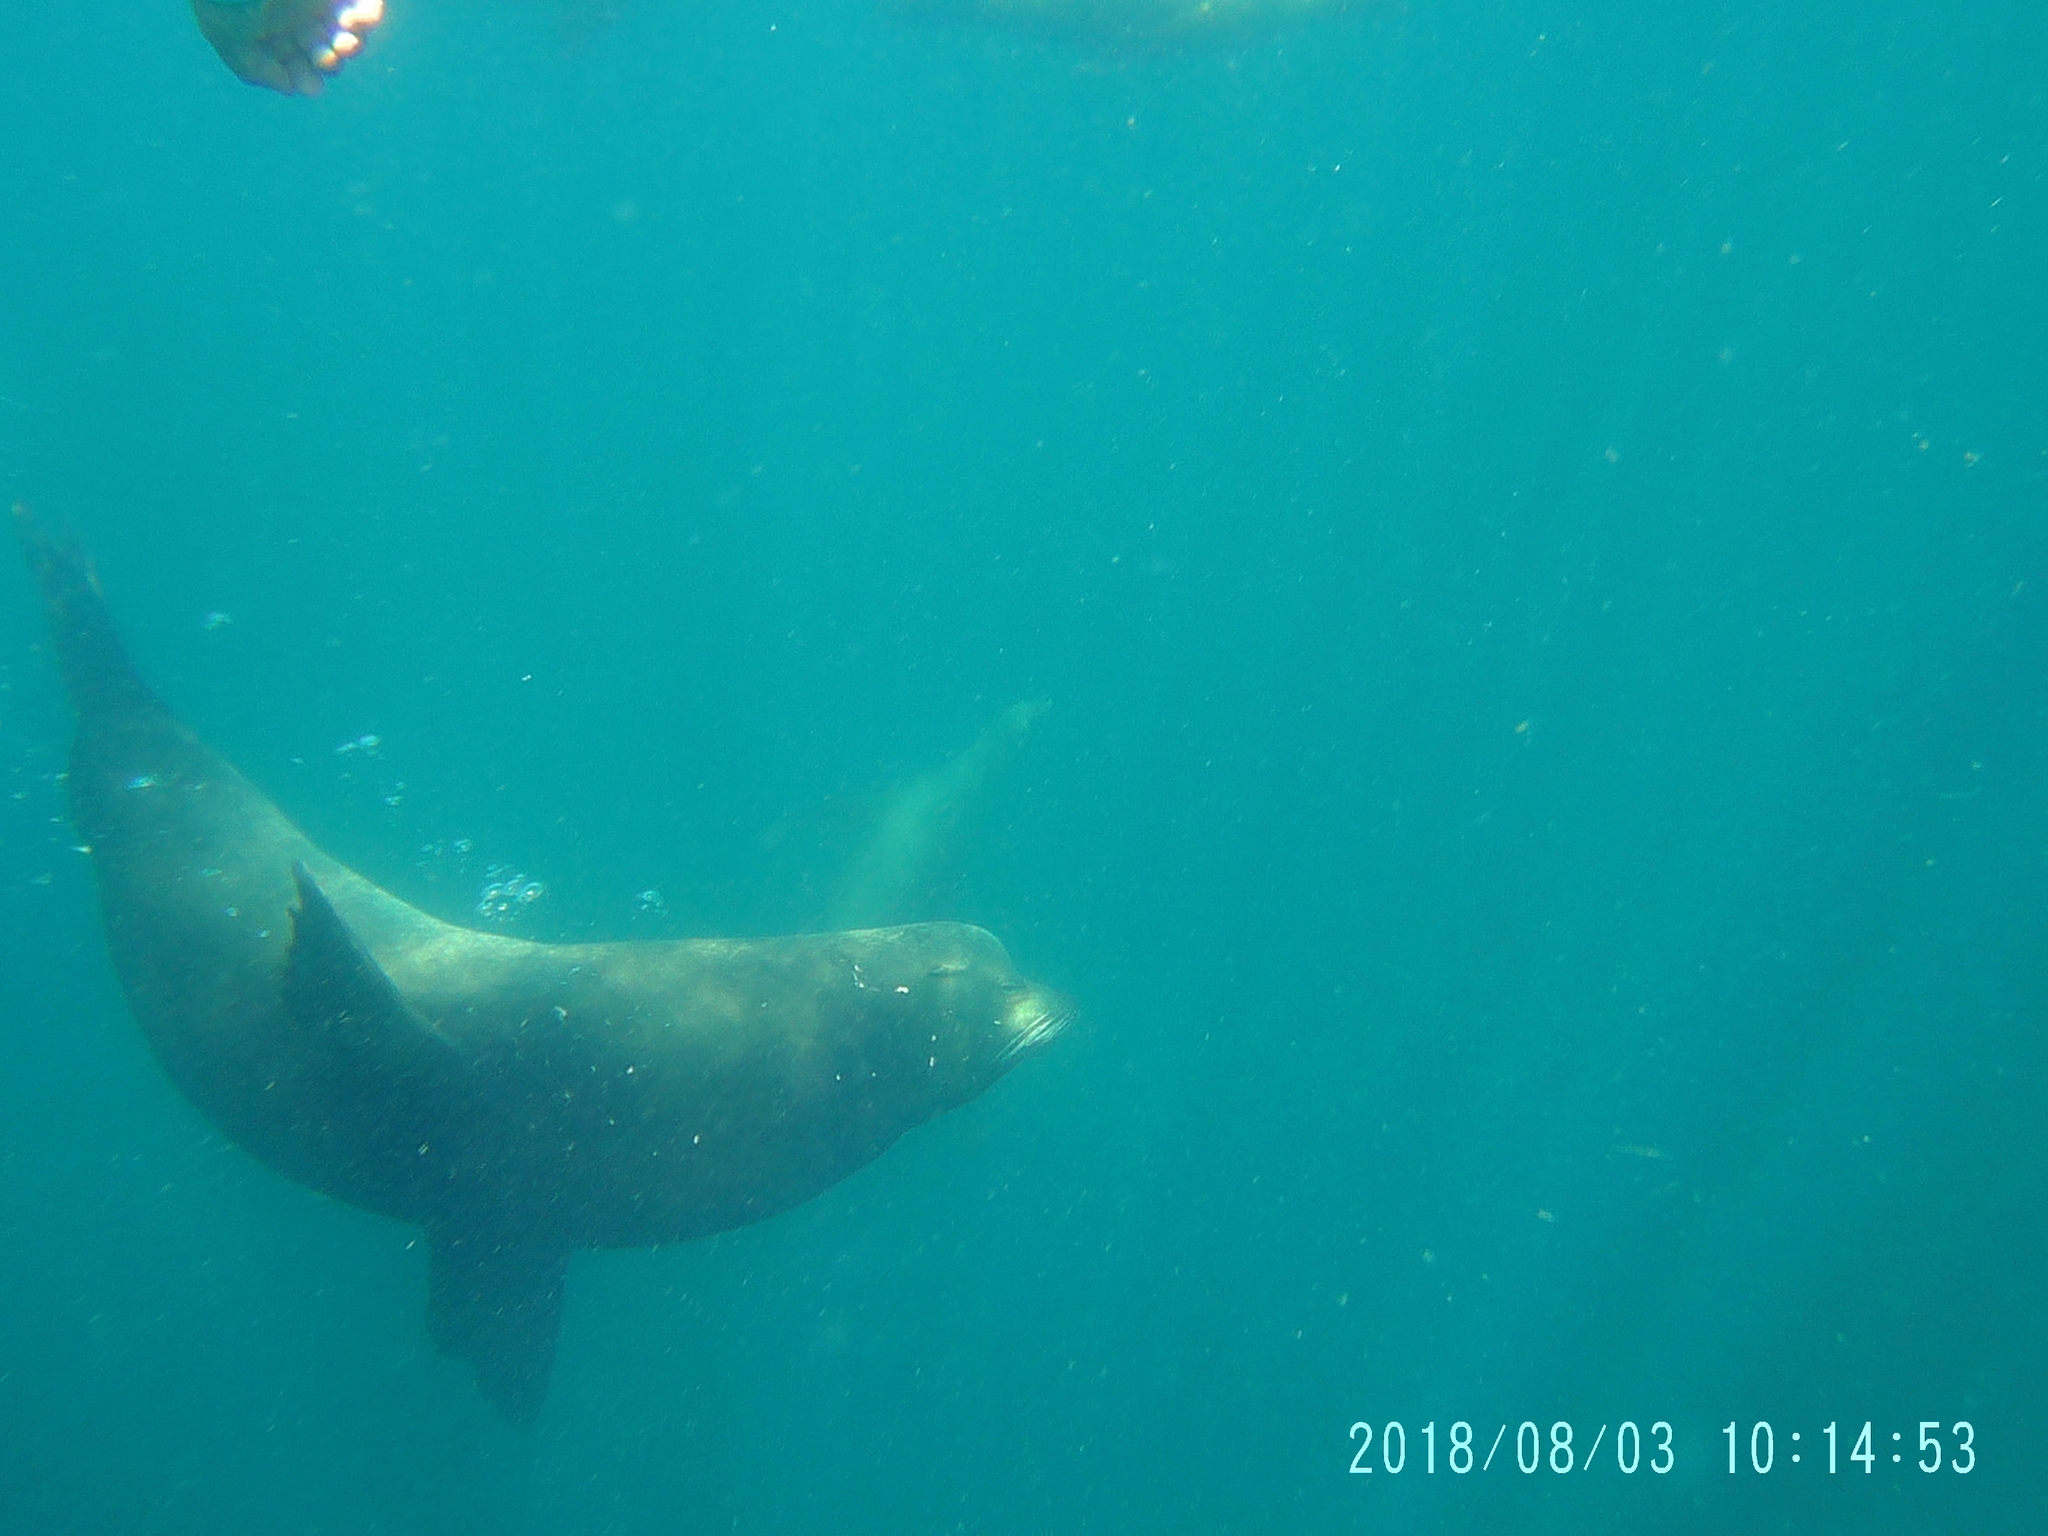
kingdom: Animalia
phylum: Chordata
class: Mammalia
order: Carnivora
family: Otariidae
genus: Zalophus
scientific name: Zalophus californianus
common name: California sea lion
